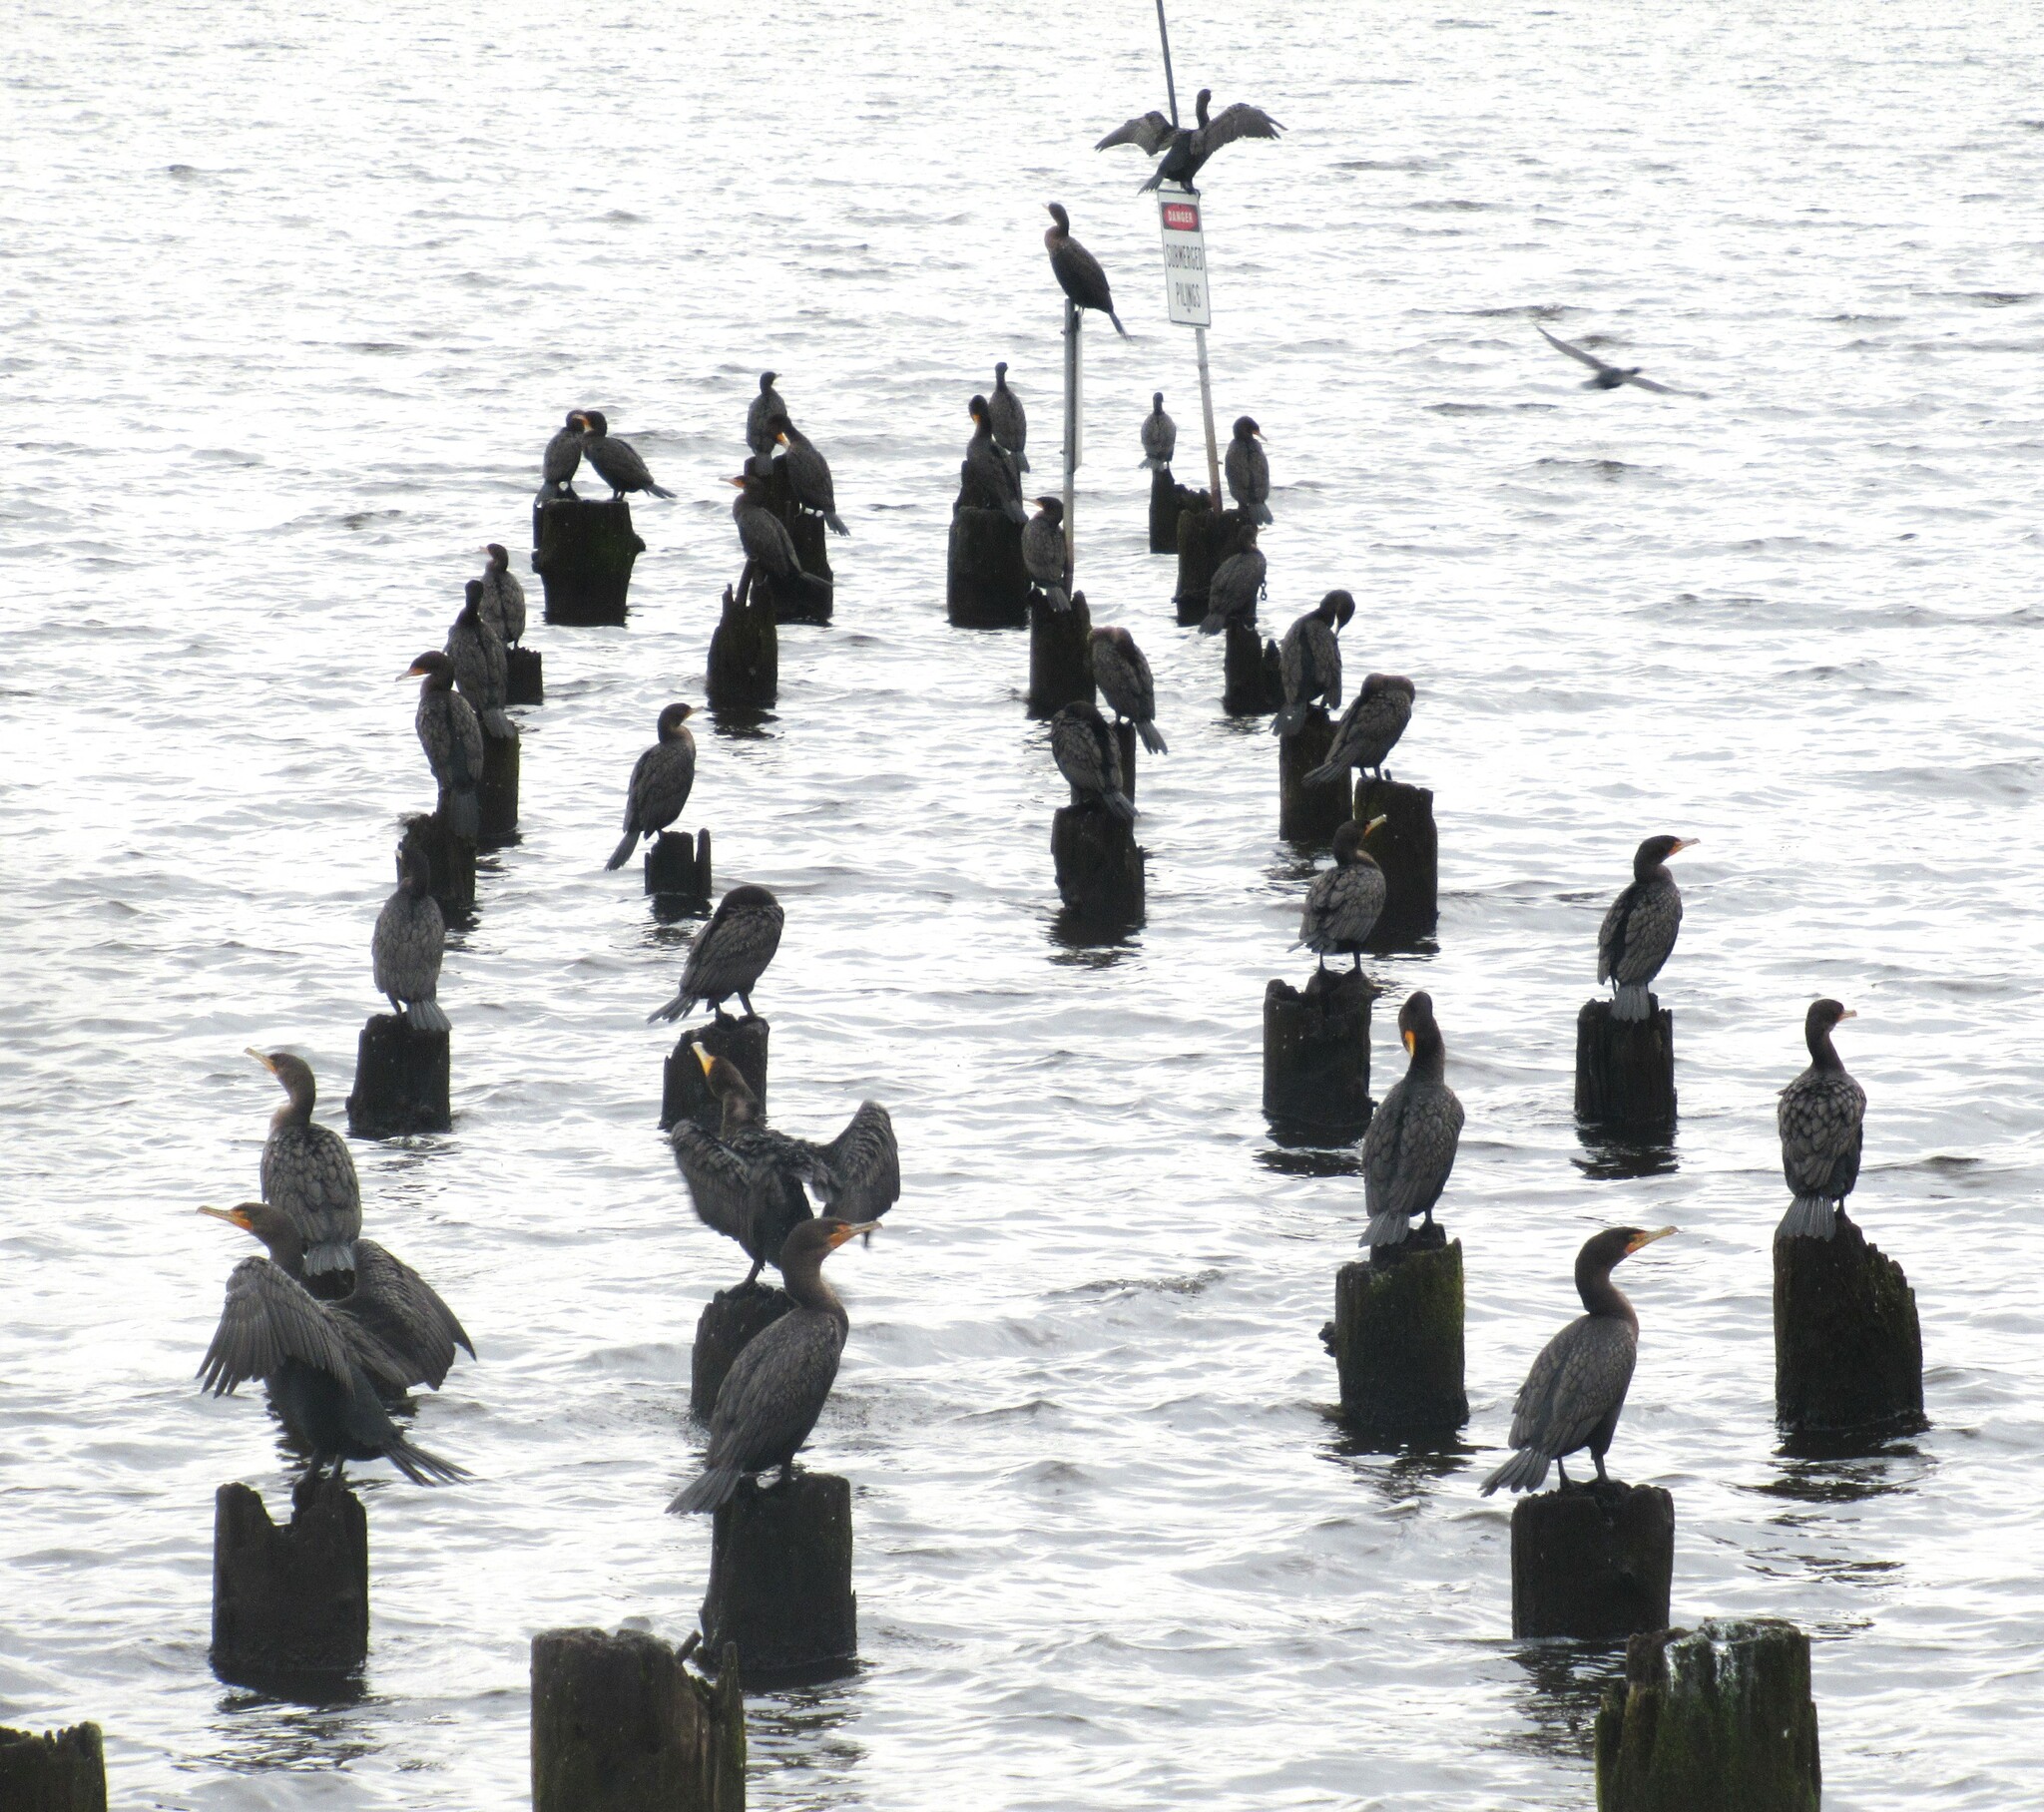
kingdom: Animalia
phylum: Chordata
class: Aves
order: Suliformes
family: Phalacrocoracidae
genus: Phalacrocorax
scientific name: Phalacrocorax auritus
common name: Double-crested cormorant
